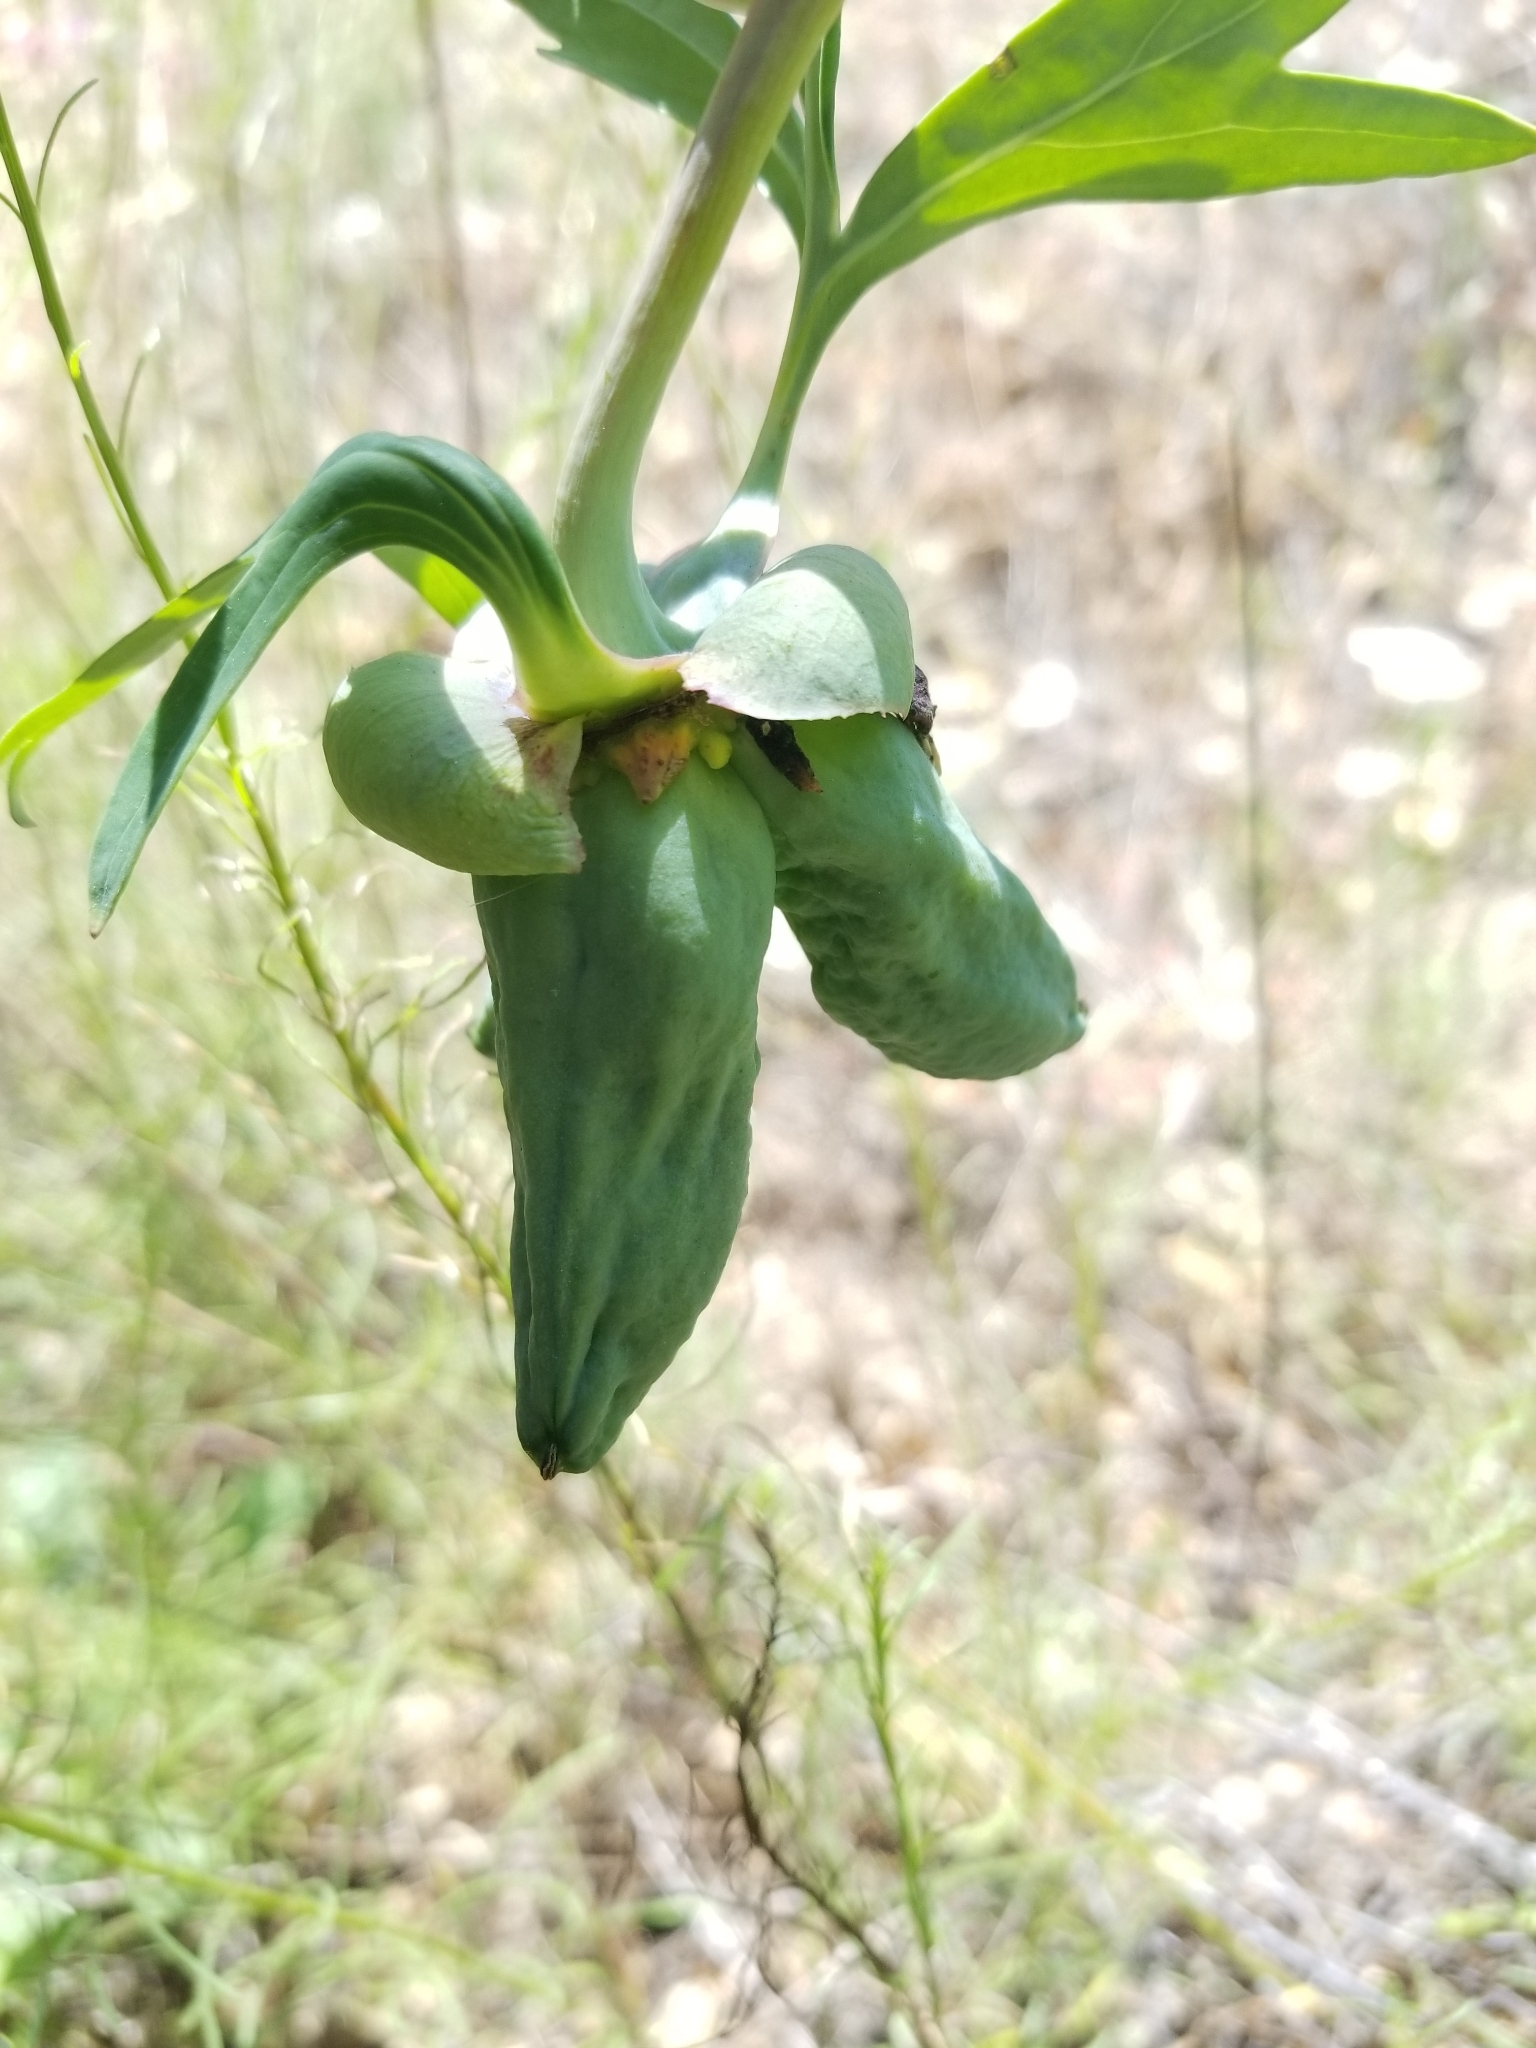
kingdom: Plantae
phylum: Tracheophyta
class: Magnoliopsida
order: Saxifragales
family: Paeoniaceae
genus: Paeonia
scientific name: Paeonia californica
